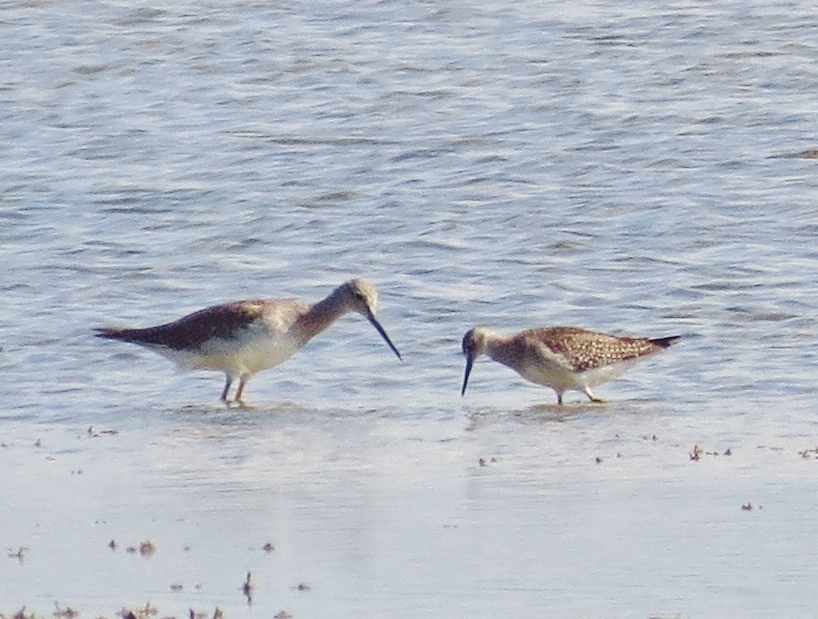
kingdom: Animalia
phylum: Chordata
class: Aves
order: Charadriiformes
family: Scolopacidae
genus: Tringa
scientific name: Tringa melanoleuca
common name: Greater yellowlegs
